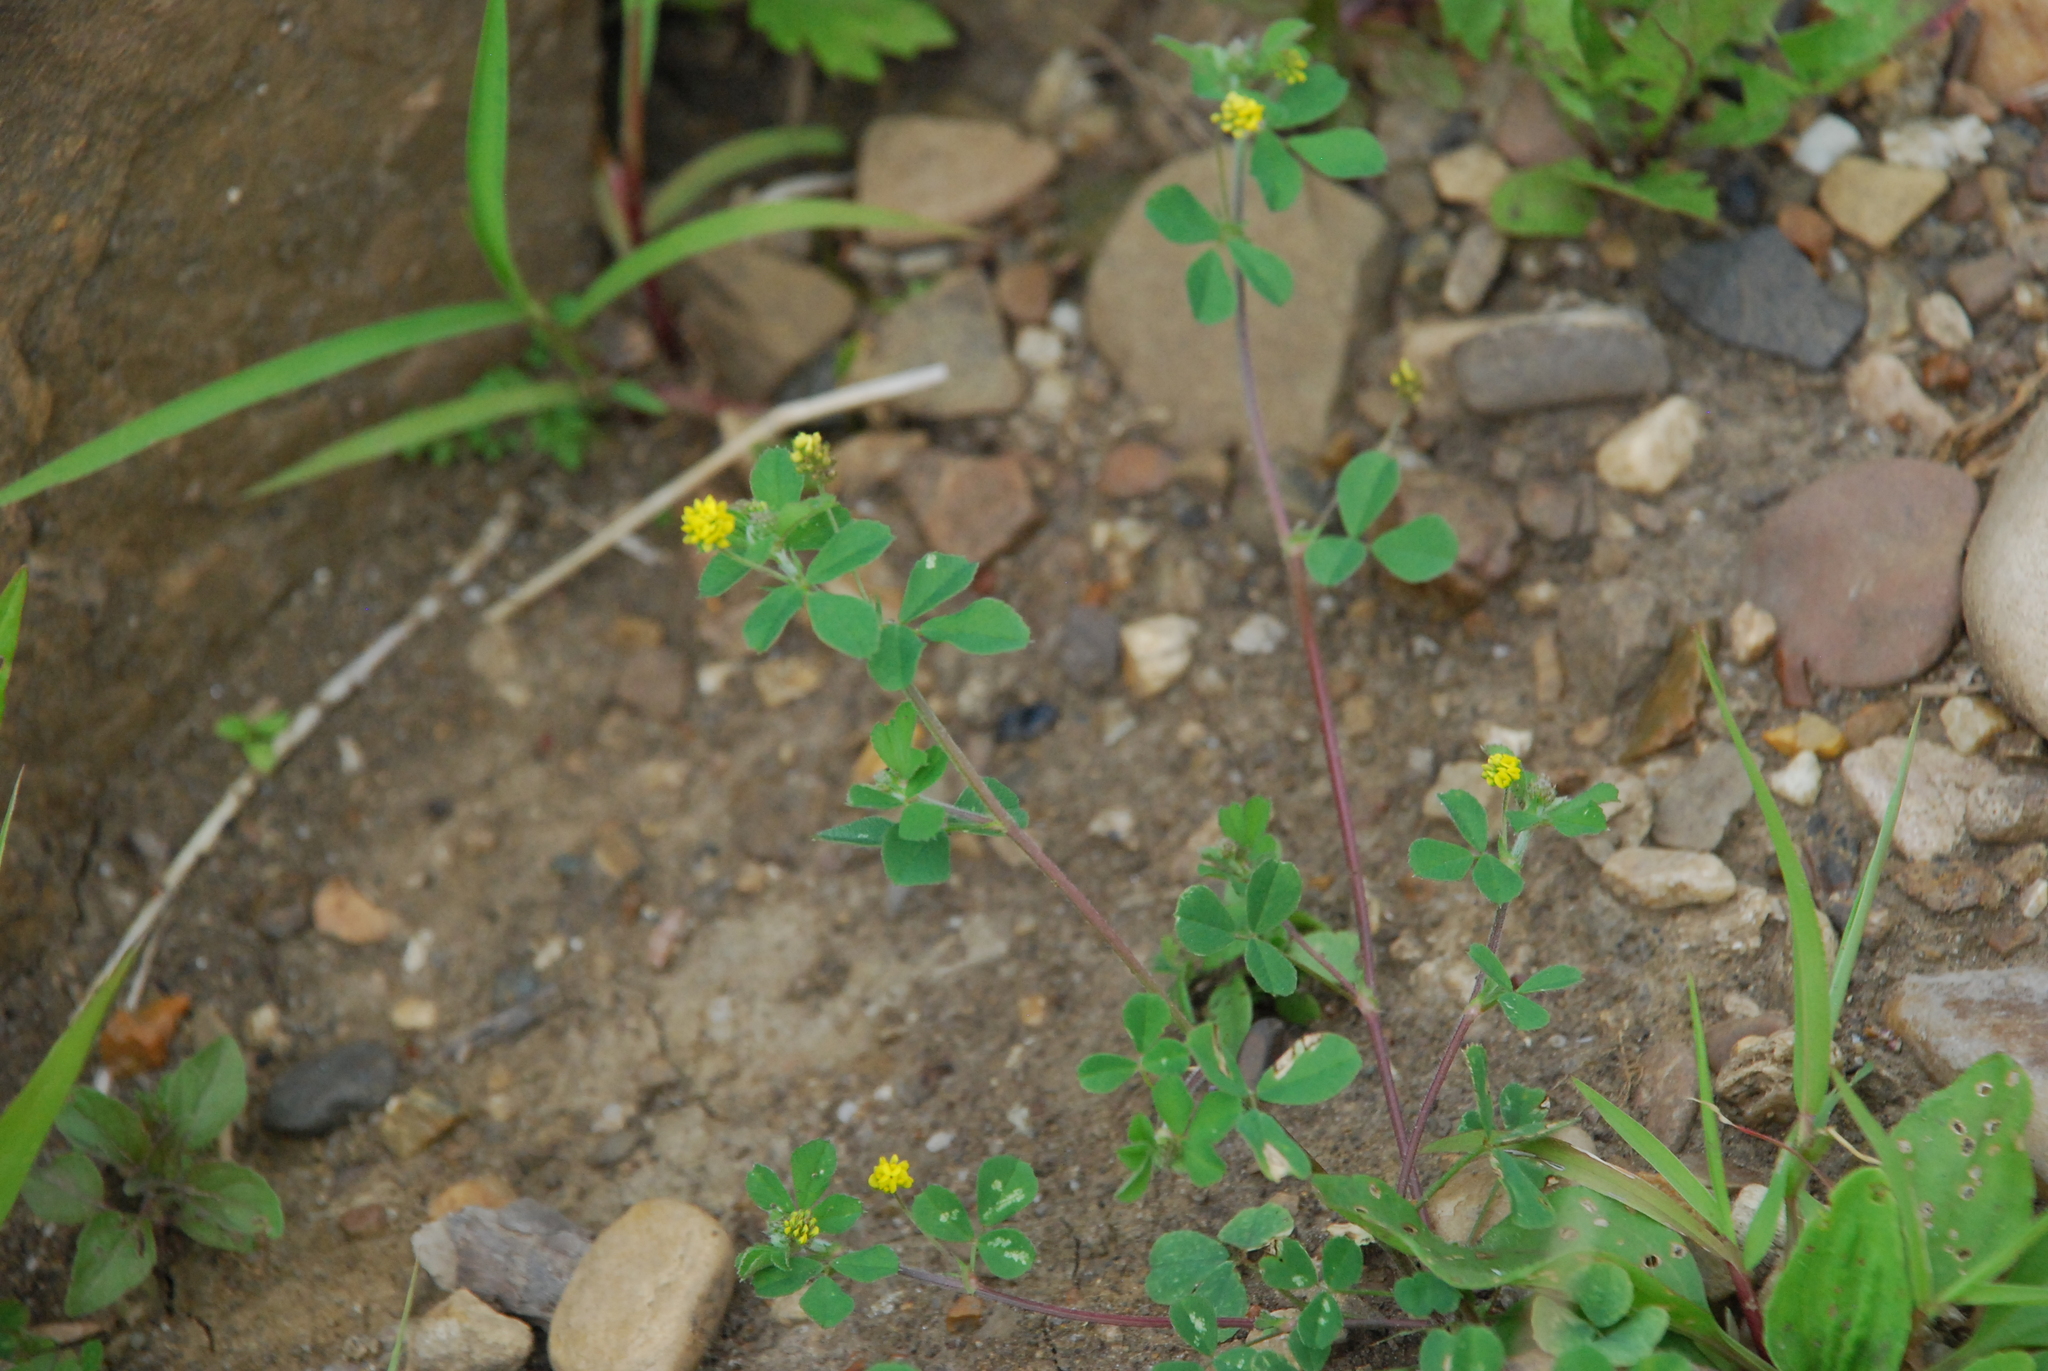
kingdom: Plantae
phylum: Tracheophyta
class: Magnoliopsida
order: Fabales
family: Fabaceae
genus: Medicago
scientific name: Medicago lupulina
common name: Black medick
